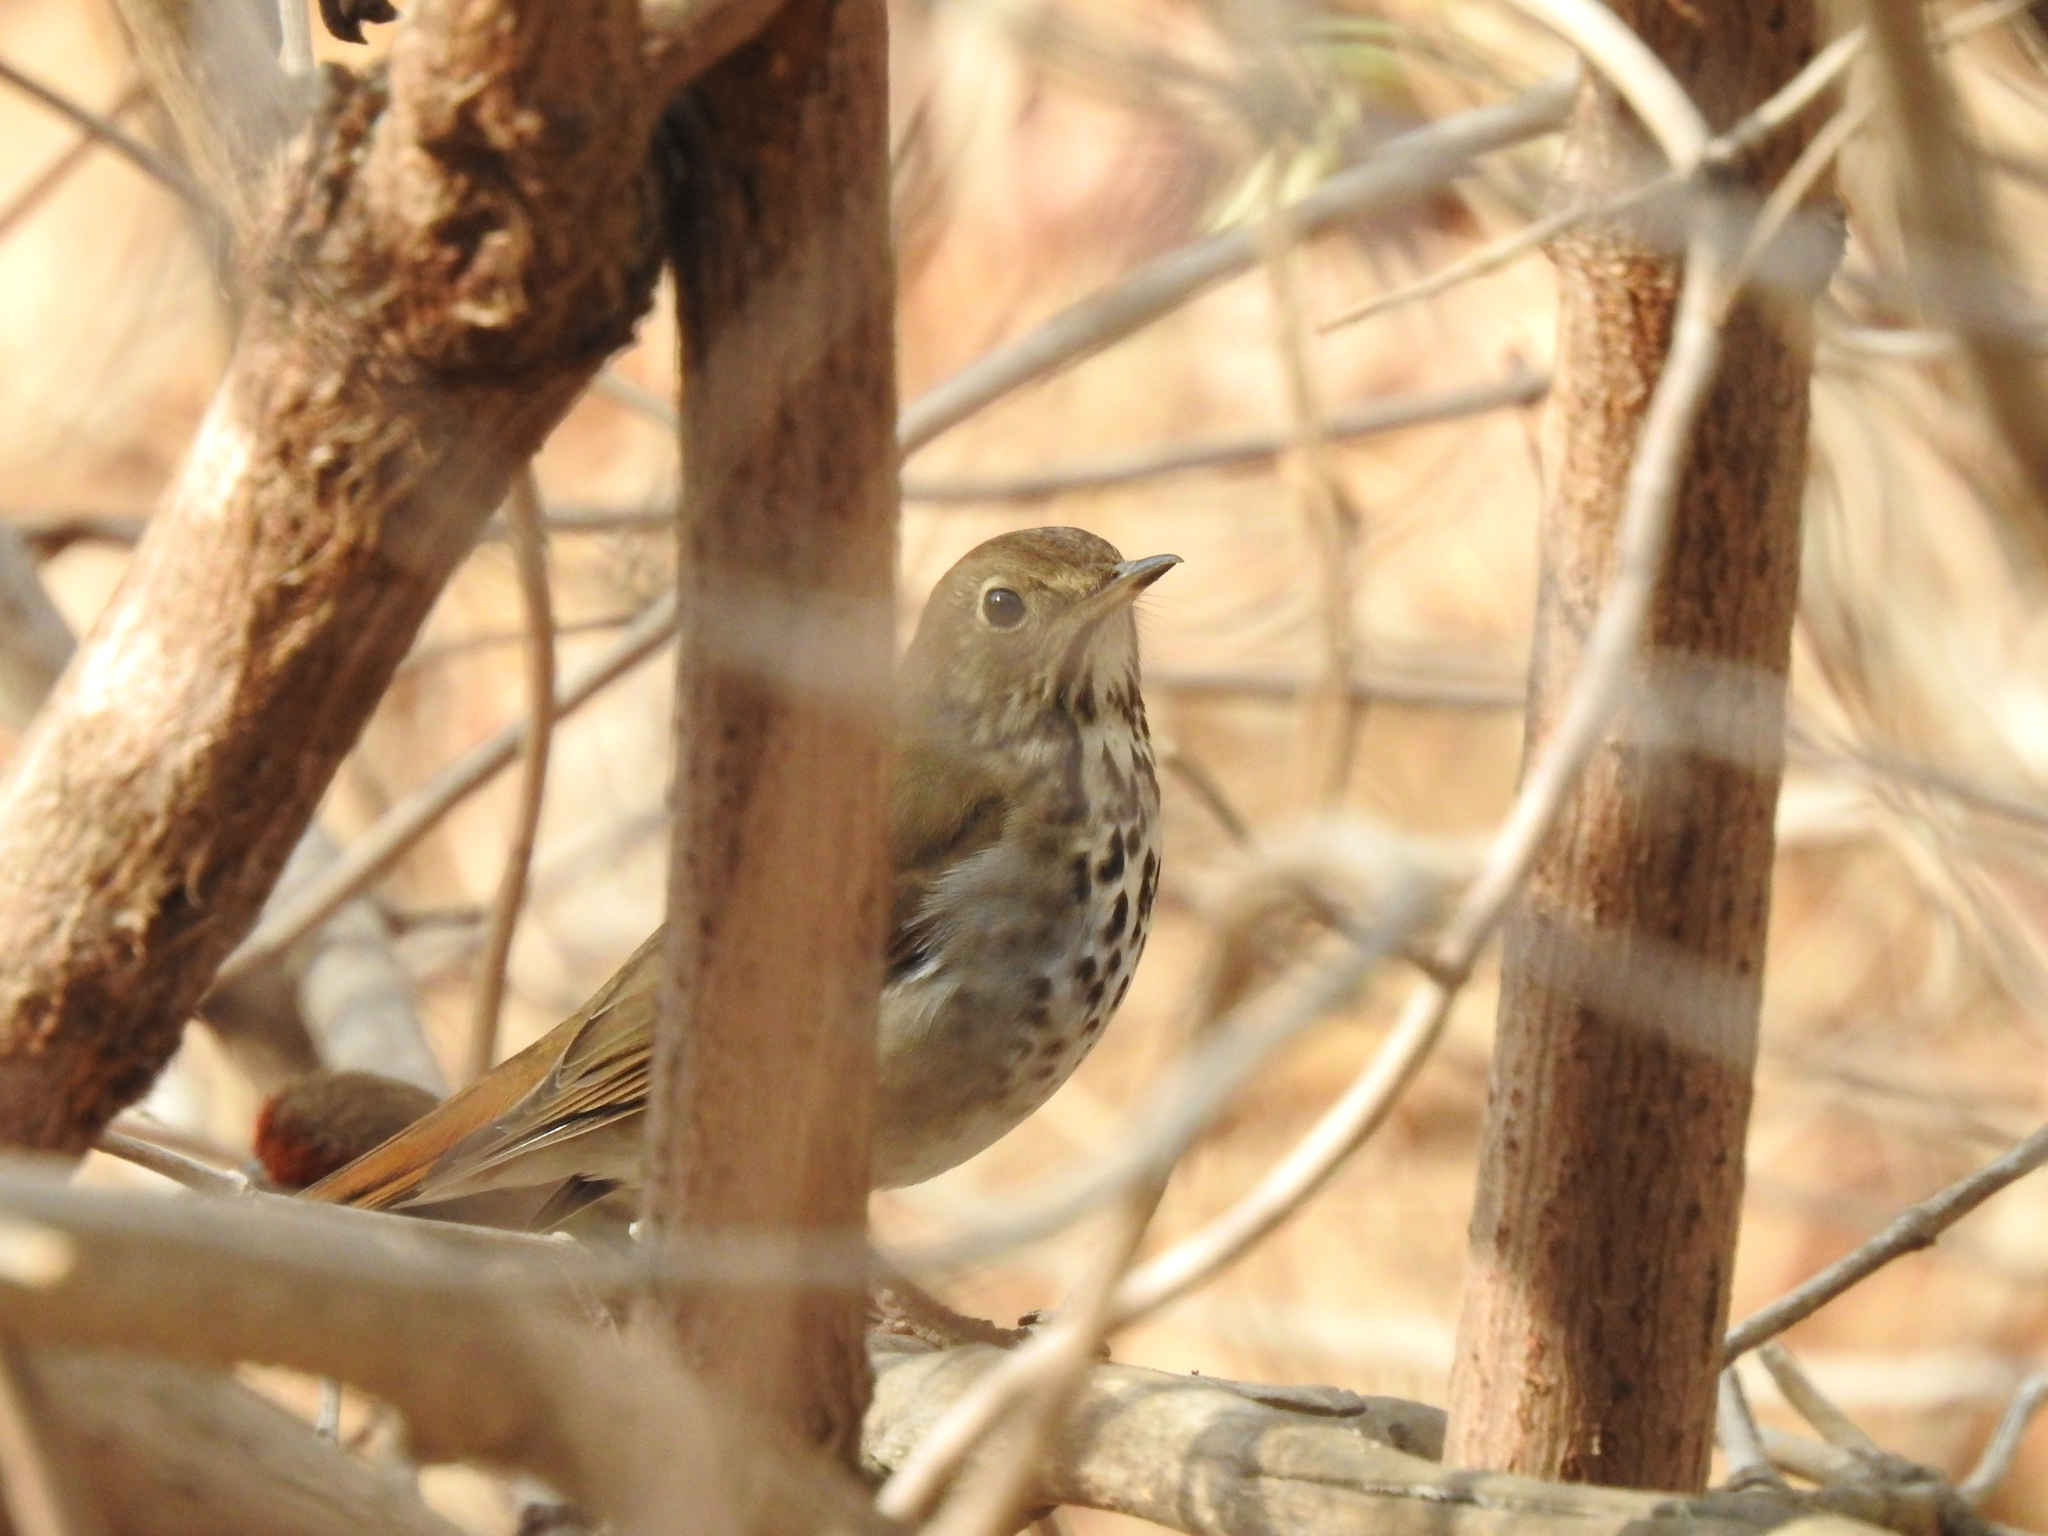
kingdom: Animalia
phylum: Chordata
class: Aves
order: Passeriformes
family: Turdidae
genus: Catharus
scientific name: Catharus guttatus
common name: Hermit thrush
